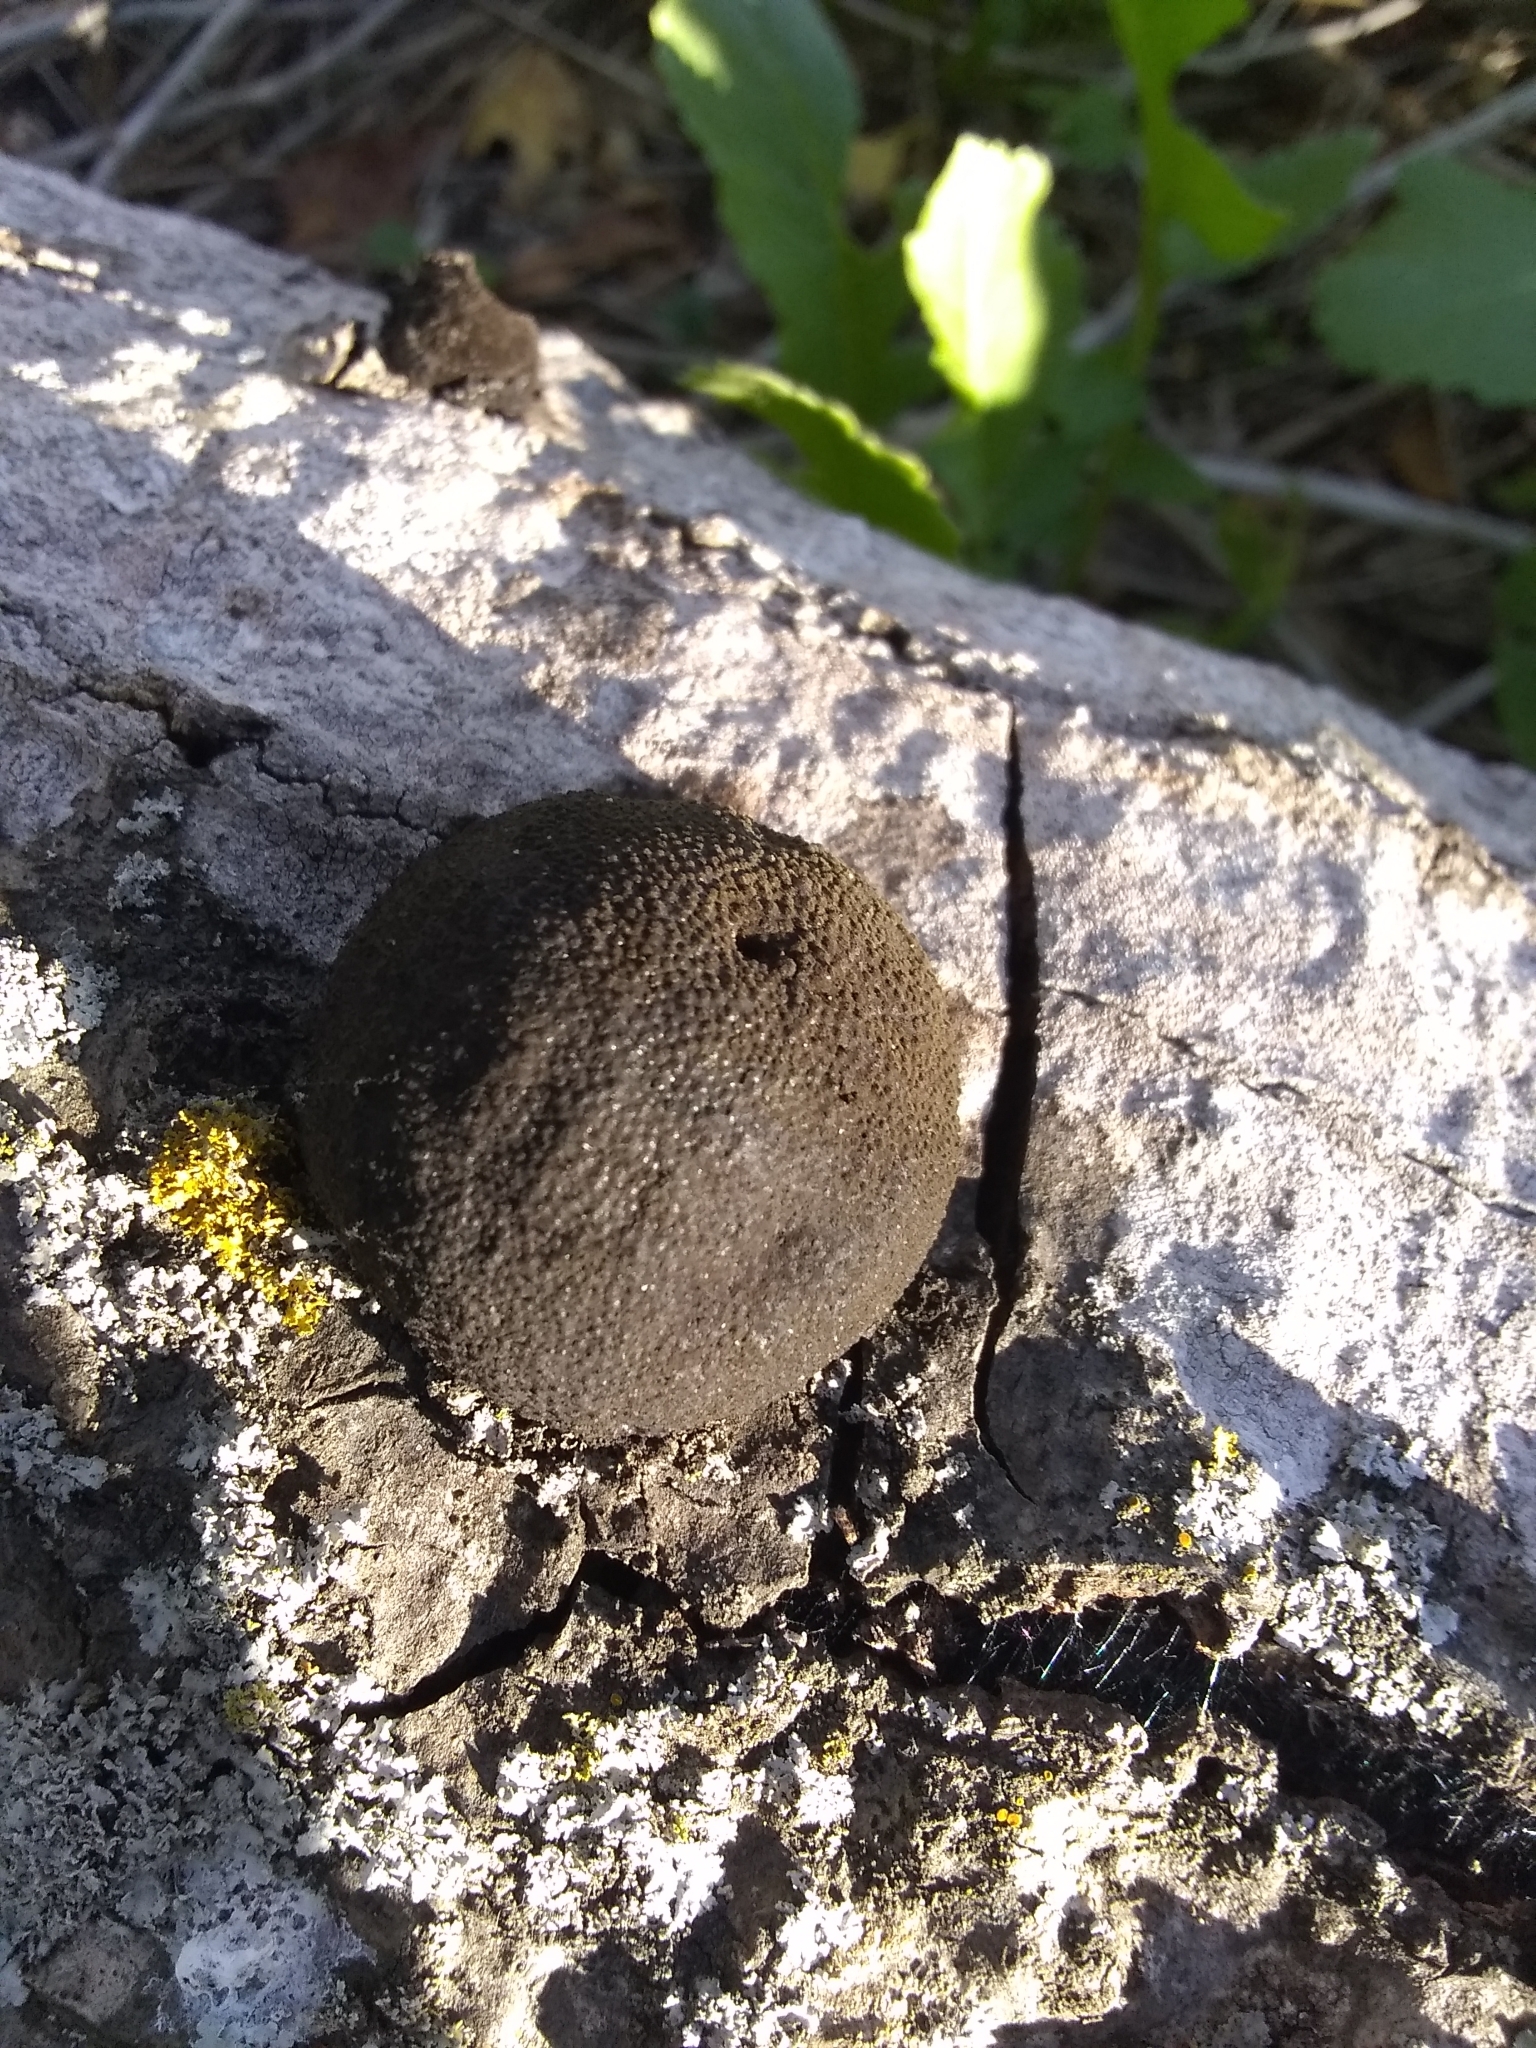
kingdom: Fungi
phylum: Ascomycota
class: Sordariomycetes
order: Xylariales
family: Hypoxylaceae
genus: Annulohypoxylon
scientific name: Annulohypoxylon thouarsianum
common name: Cramp balls
